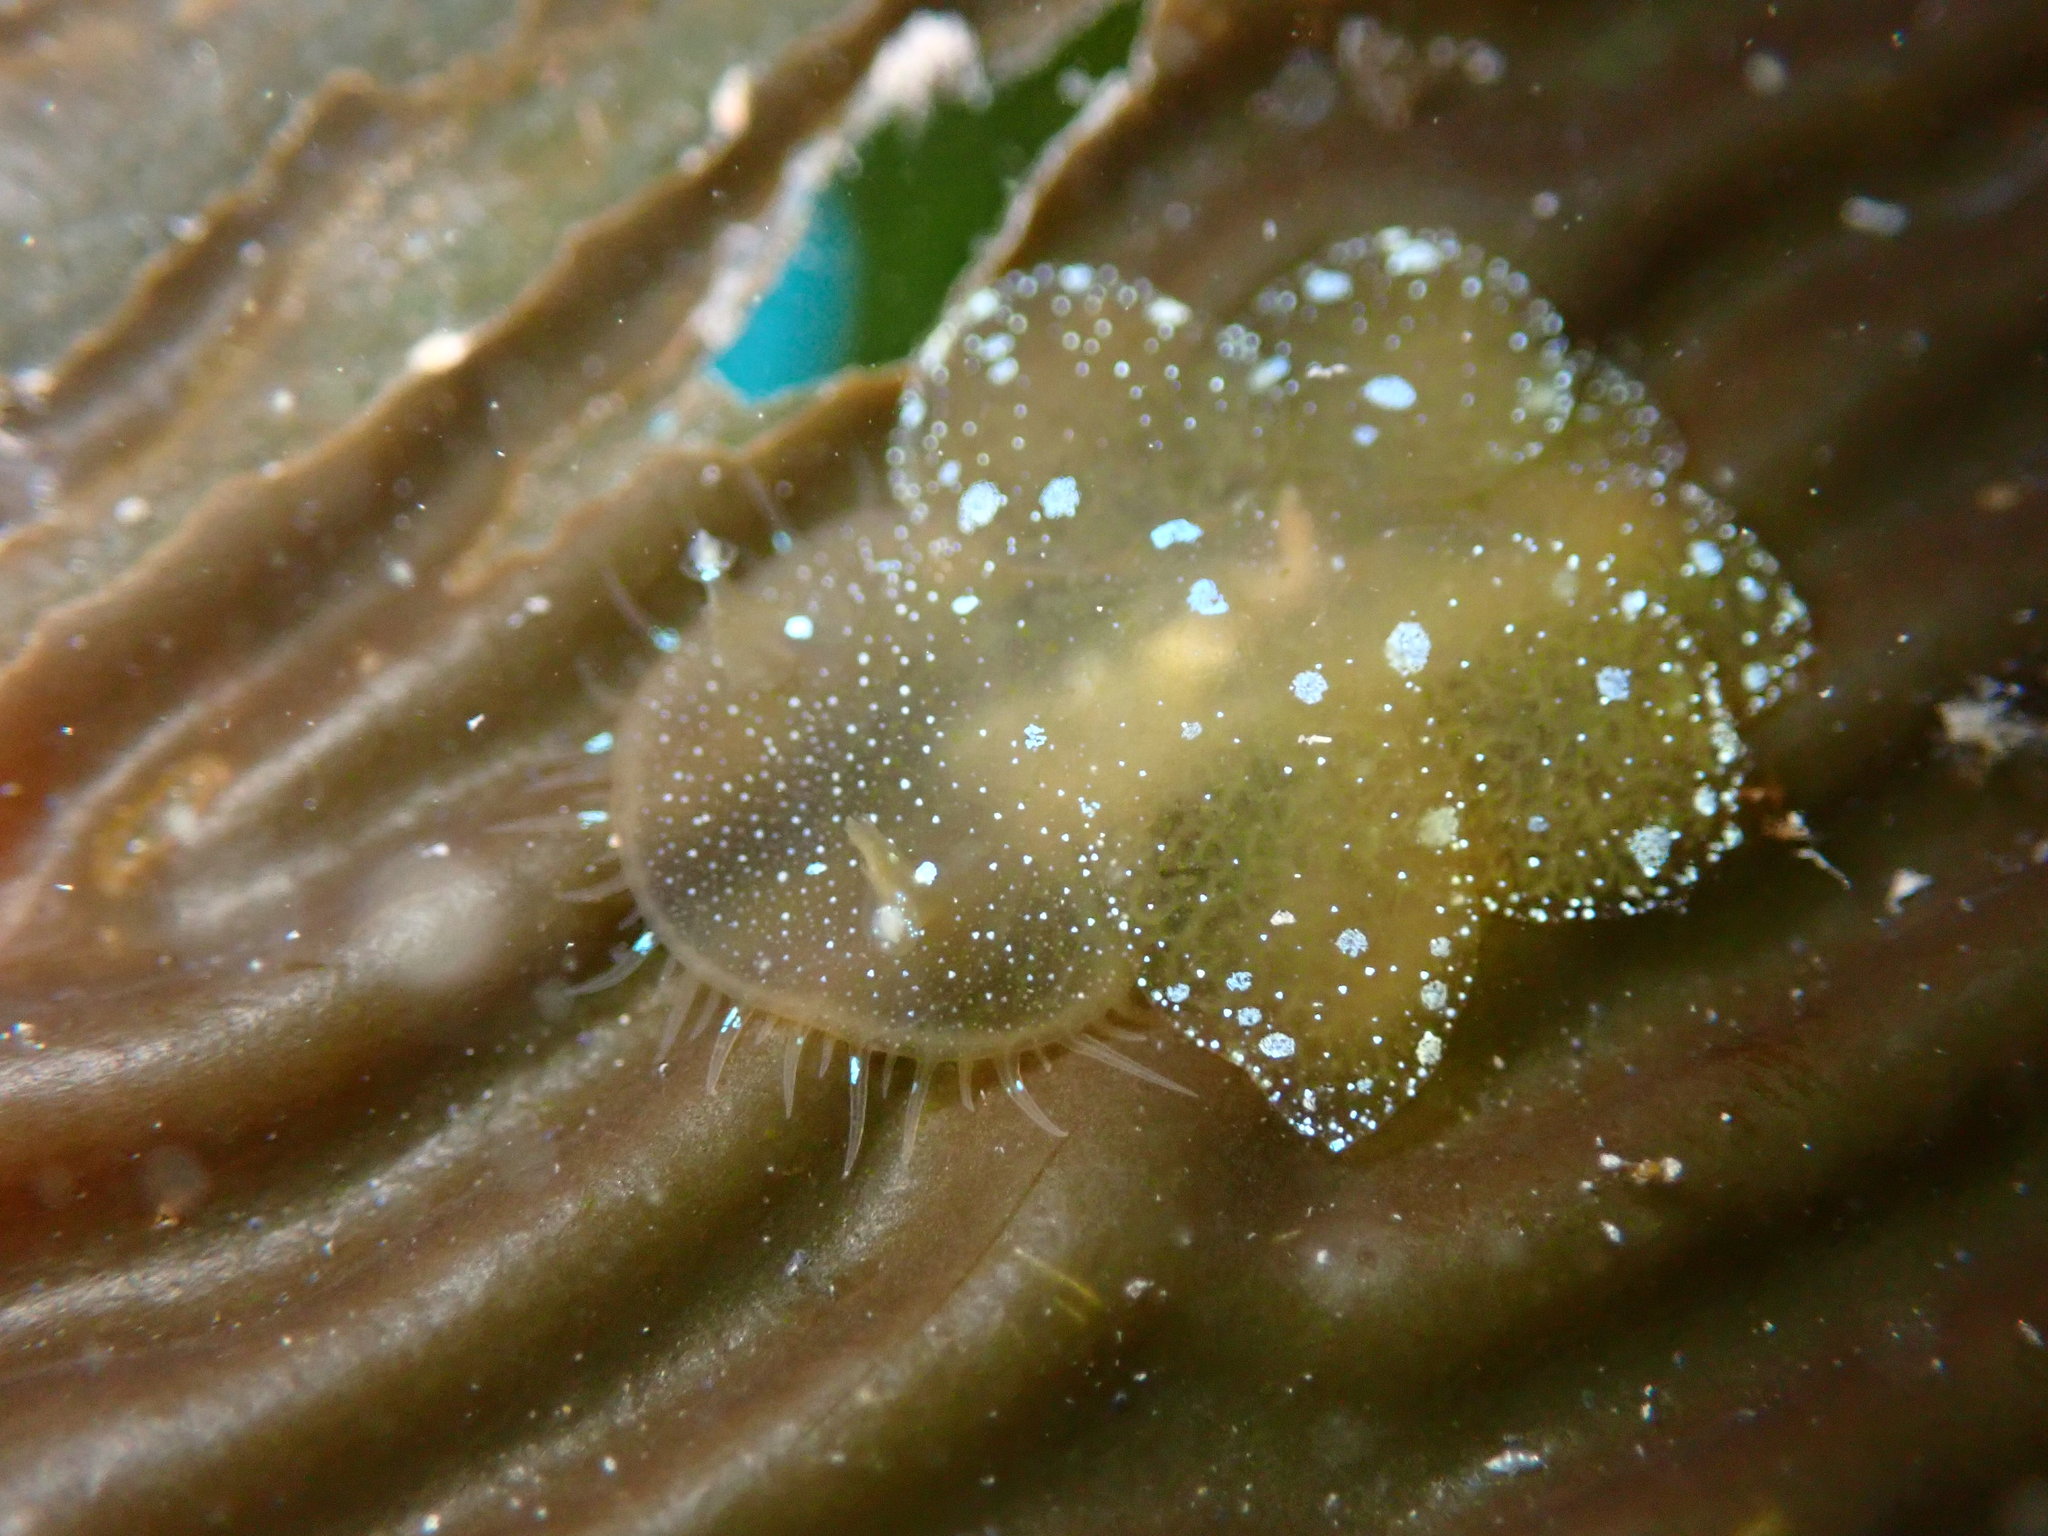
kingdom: Animalia
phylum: Mollusca
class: Gastropoda
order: Nudibranchia
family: Tethydidae
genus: Melibe
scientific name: Melibe leonina
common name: Lion nudibranch
